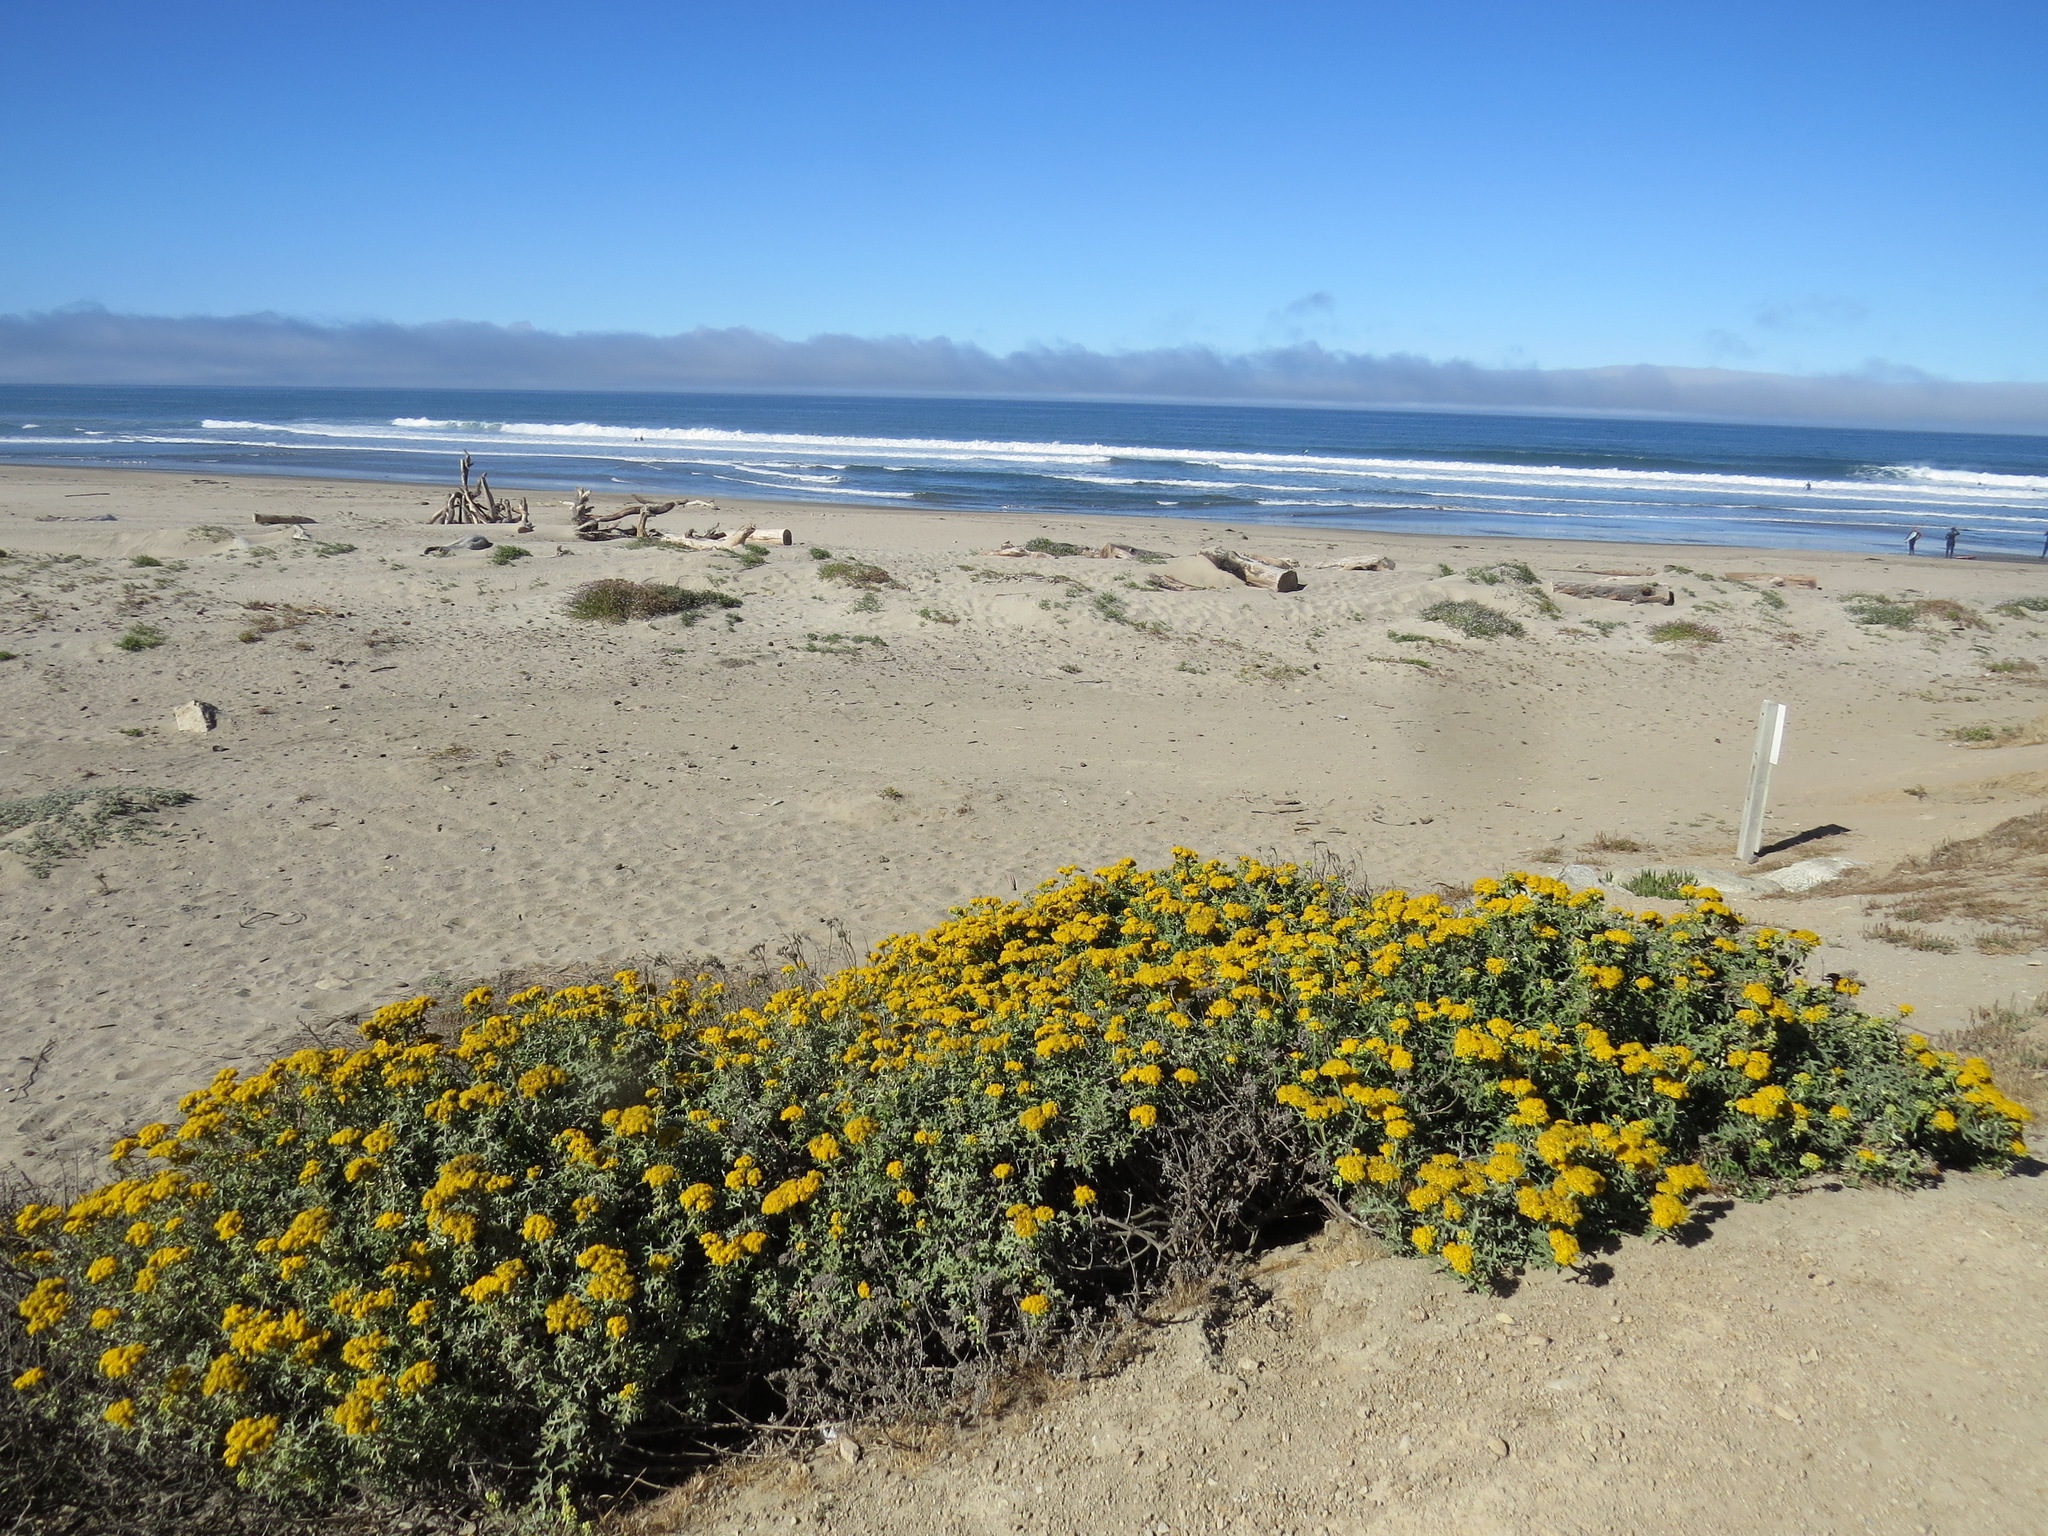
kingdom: Plantae
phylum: Tracheophyta
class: Magnoliopsida
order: Asterales
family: Asteraceae
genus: Eriophyllum
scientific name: Eriophyllum staechadifolium
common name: Lizardtail
